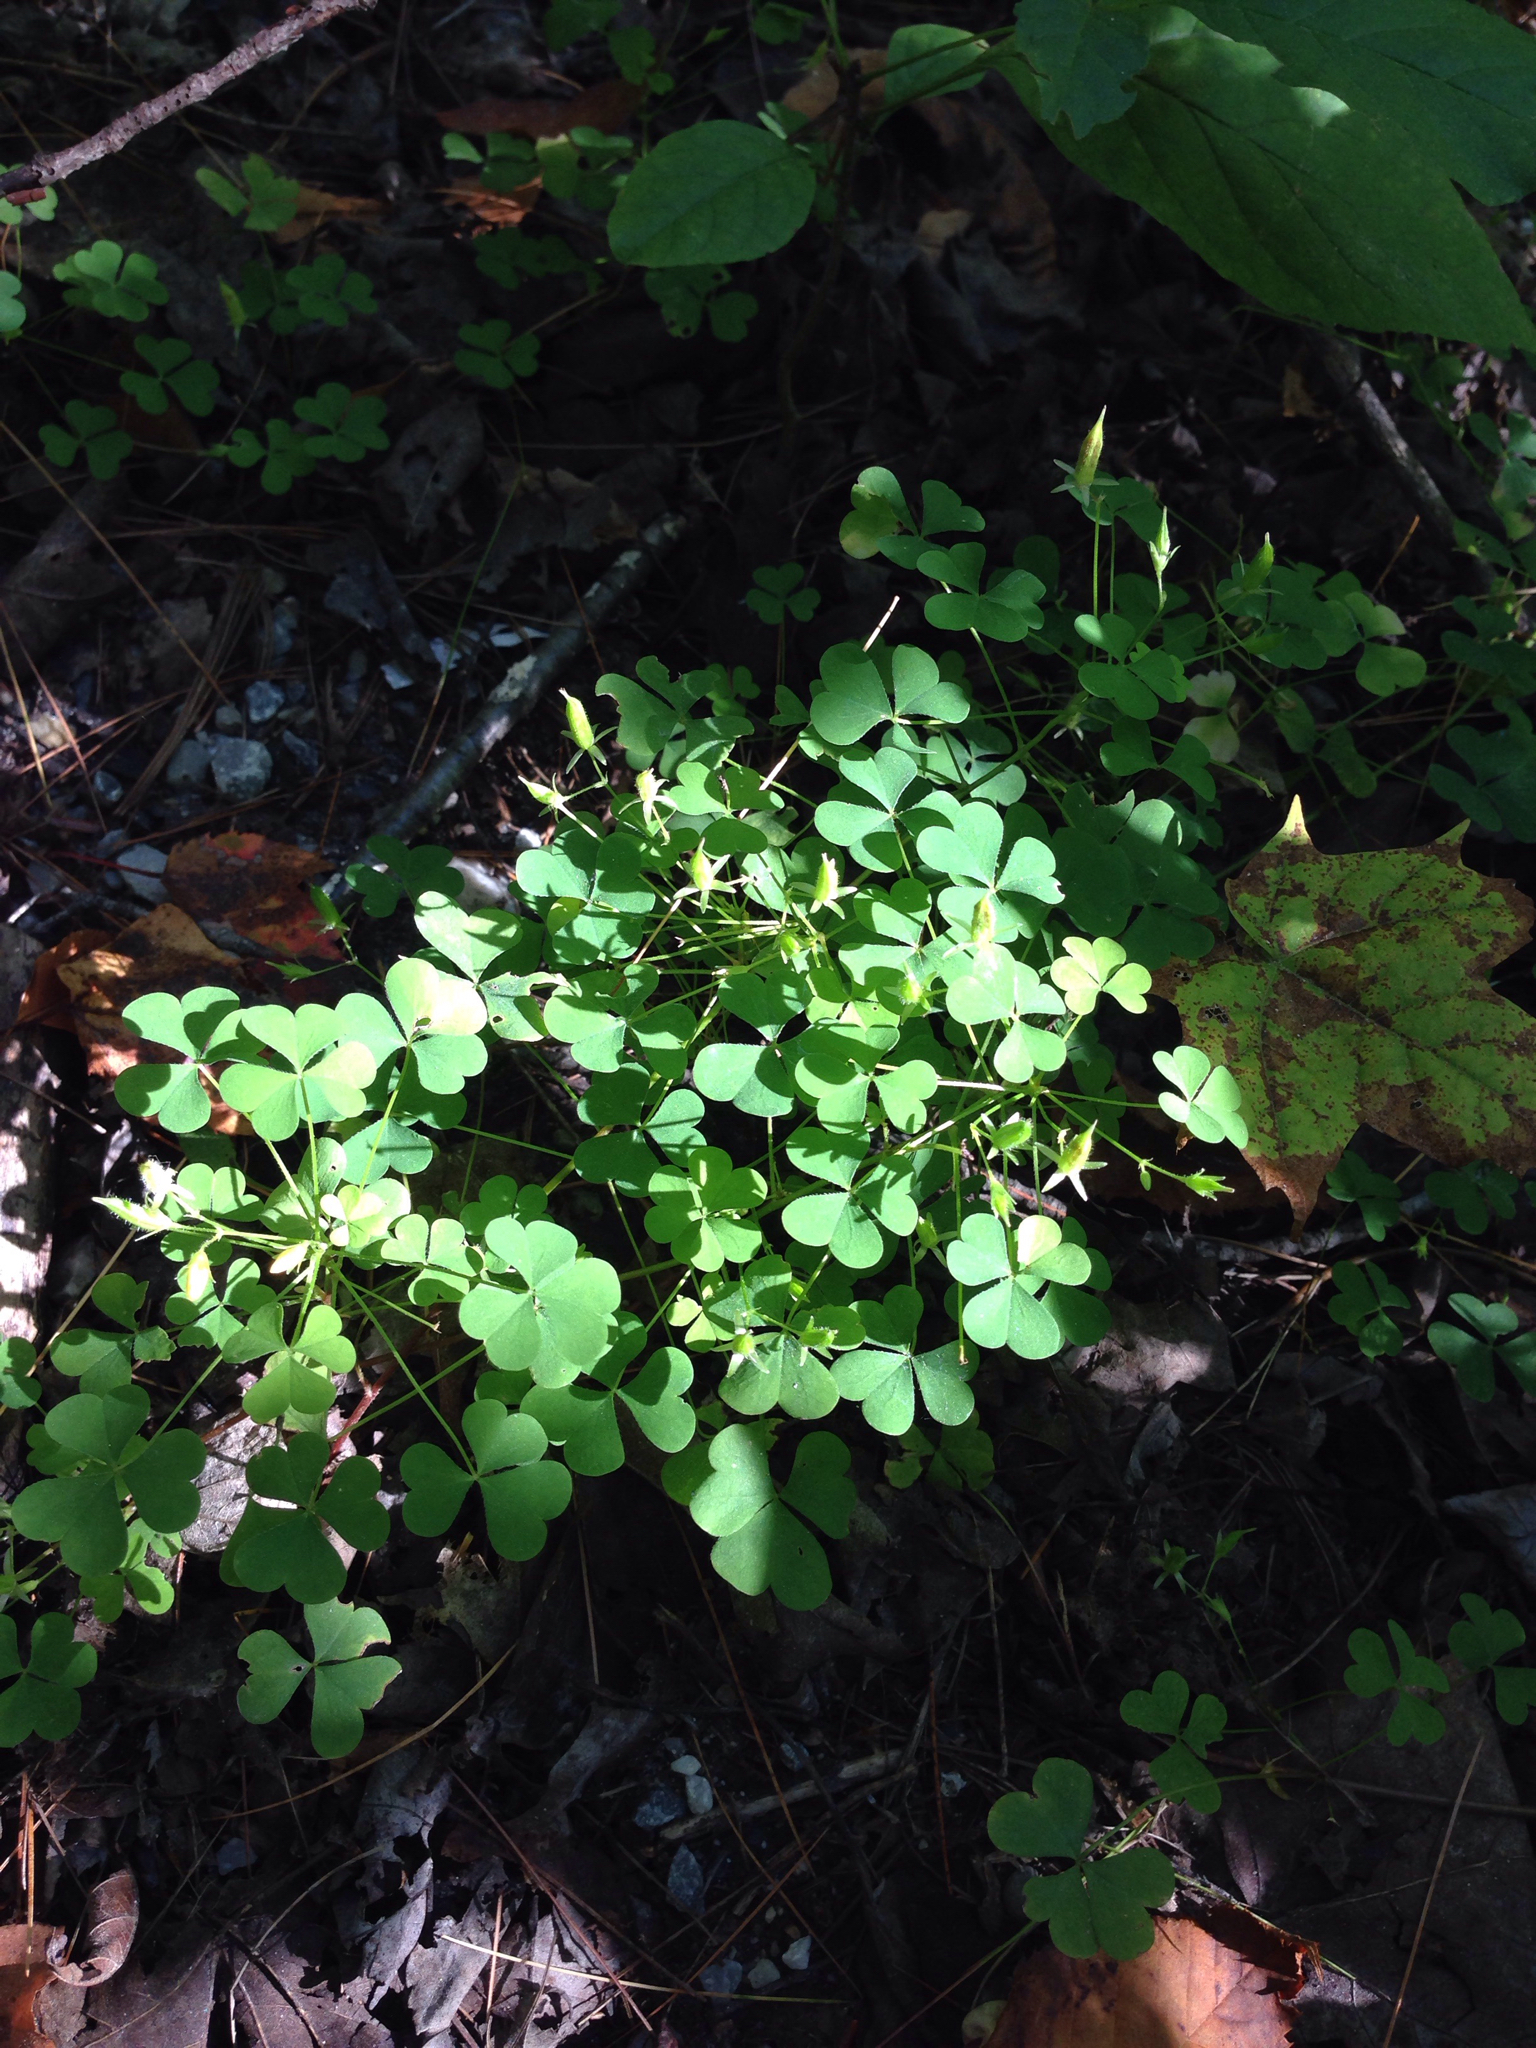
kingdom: Plantae
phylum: Tracheophyta
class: Magnoliopsida
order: Oxalidales
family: Oxalidaceae
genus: Oxalis
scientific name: Oxalis stricta
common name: Upright yellow-sorrel
